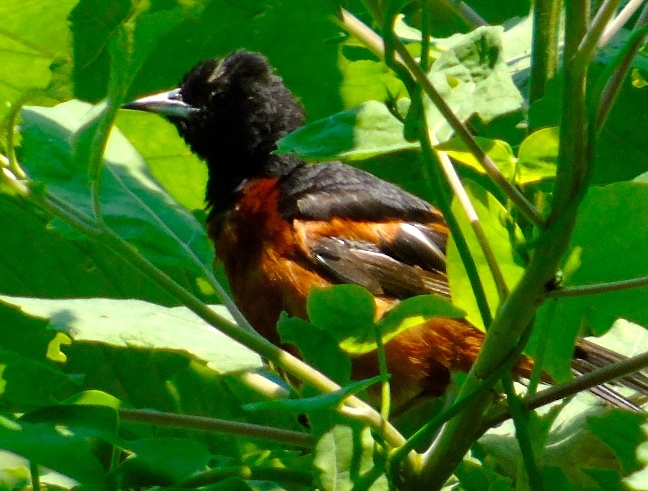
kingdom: Animalia
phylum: Chordata
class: Aves
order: Passeriformes
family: Icteridae
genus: Icterus
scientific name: Icterus spurius
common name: Orchard oriole
